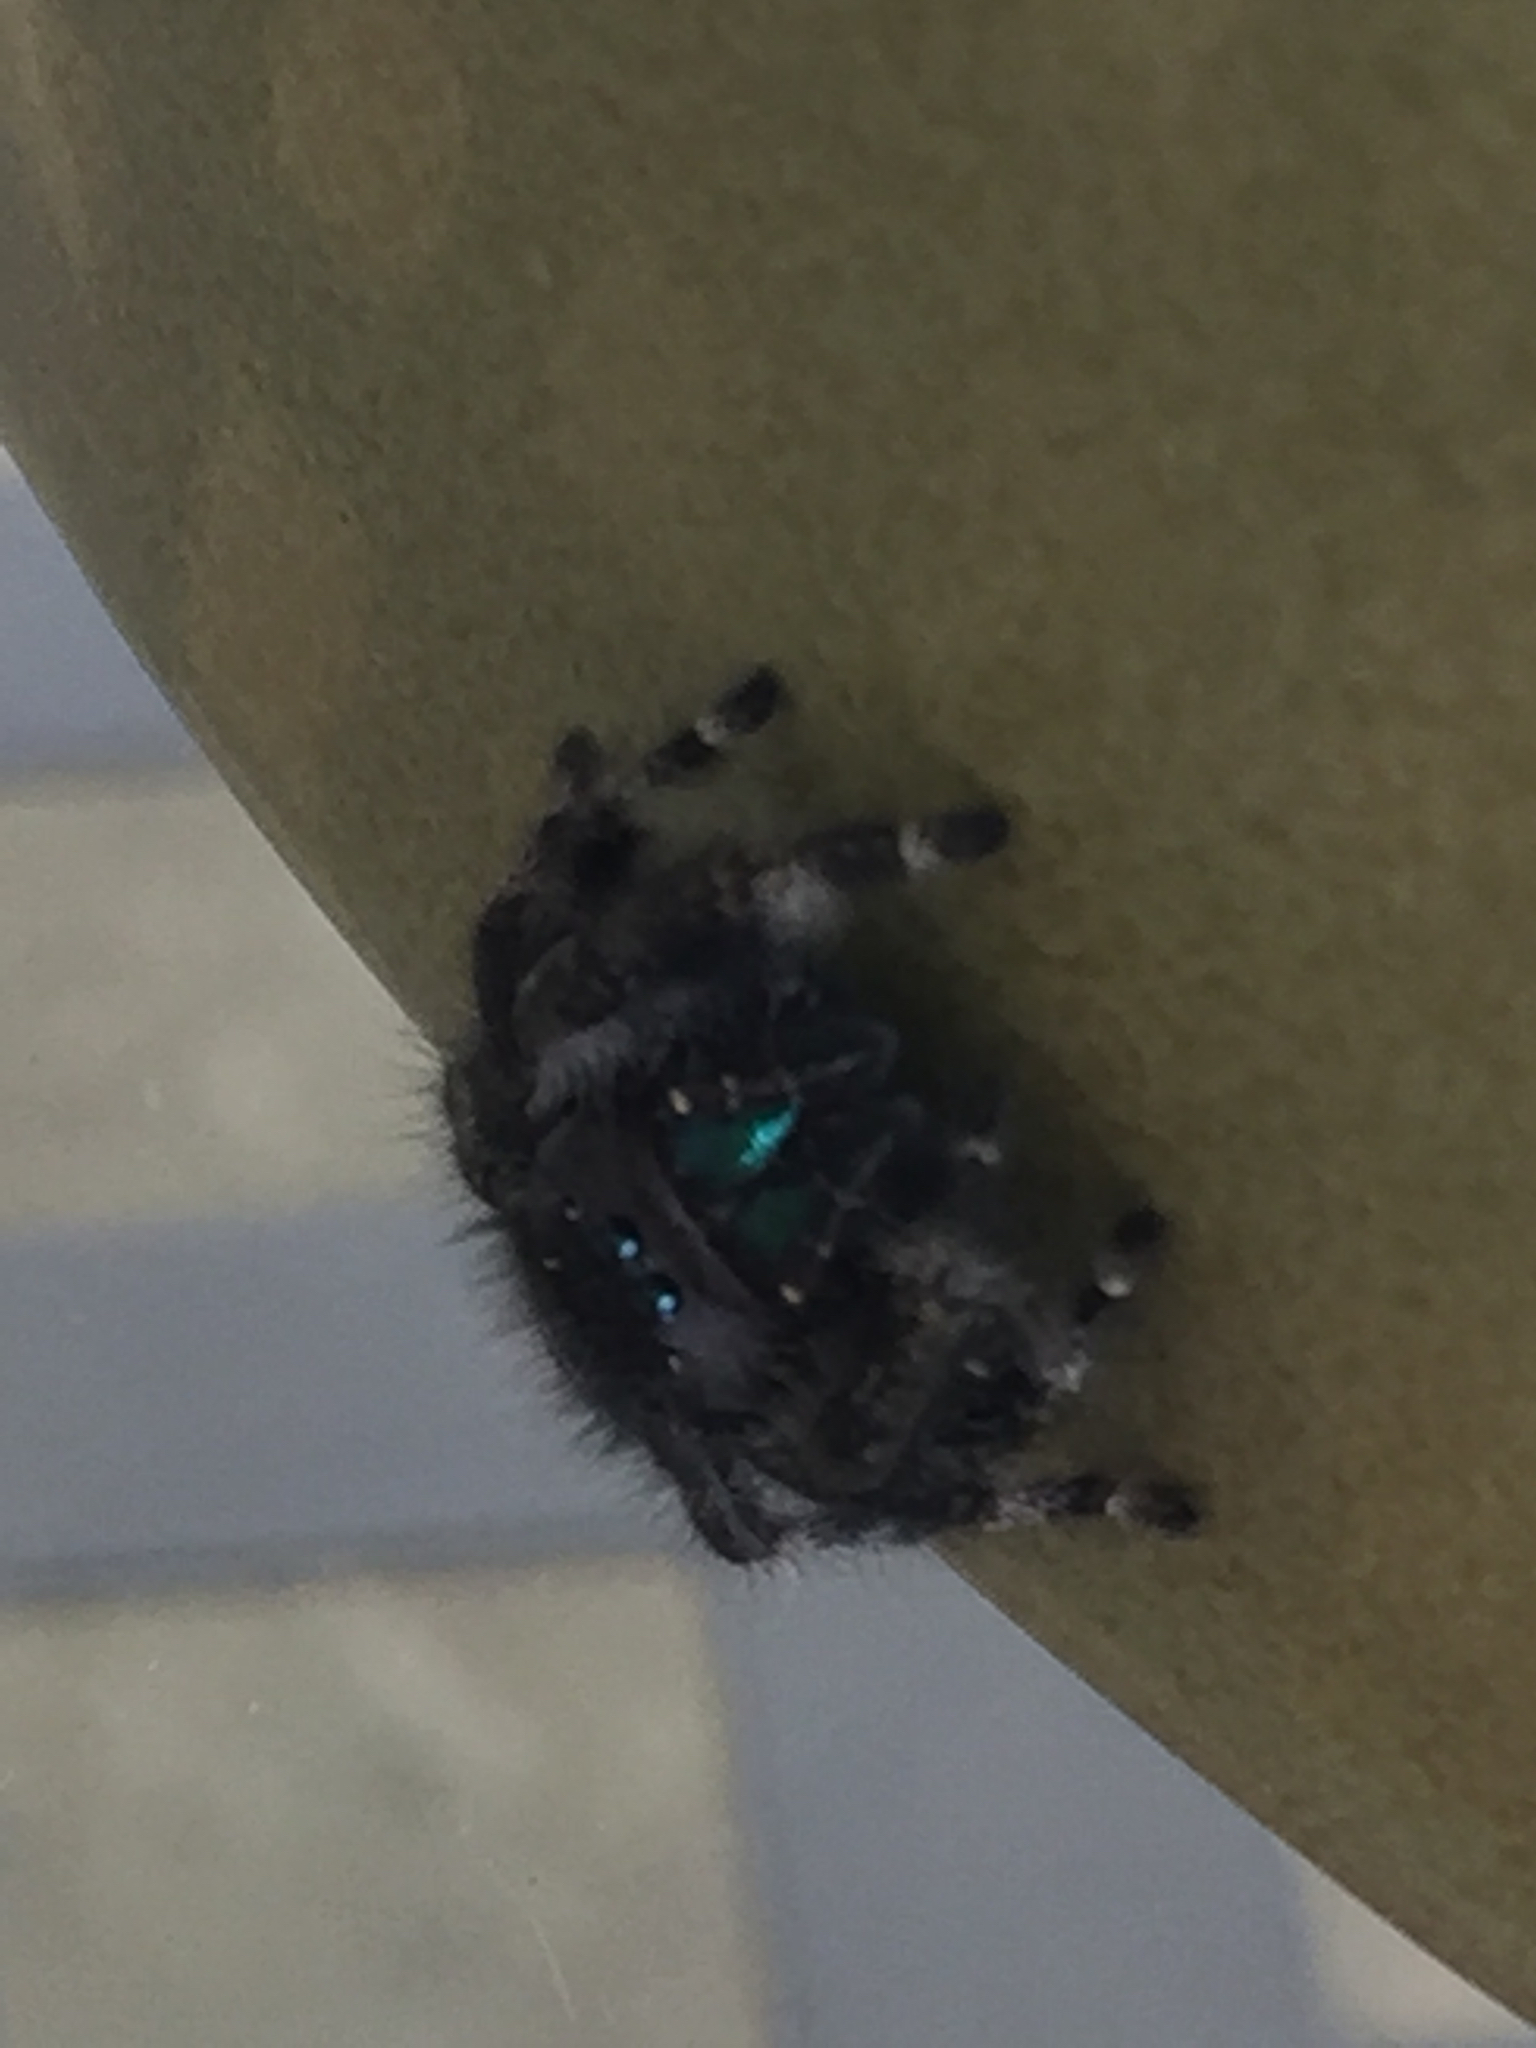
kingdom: Animalia
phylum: Arthropoda
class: Arachnida
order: Araneae
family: Salticidae
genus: Phidippus
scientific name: Phidippus audax
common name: Bold jumper
